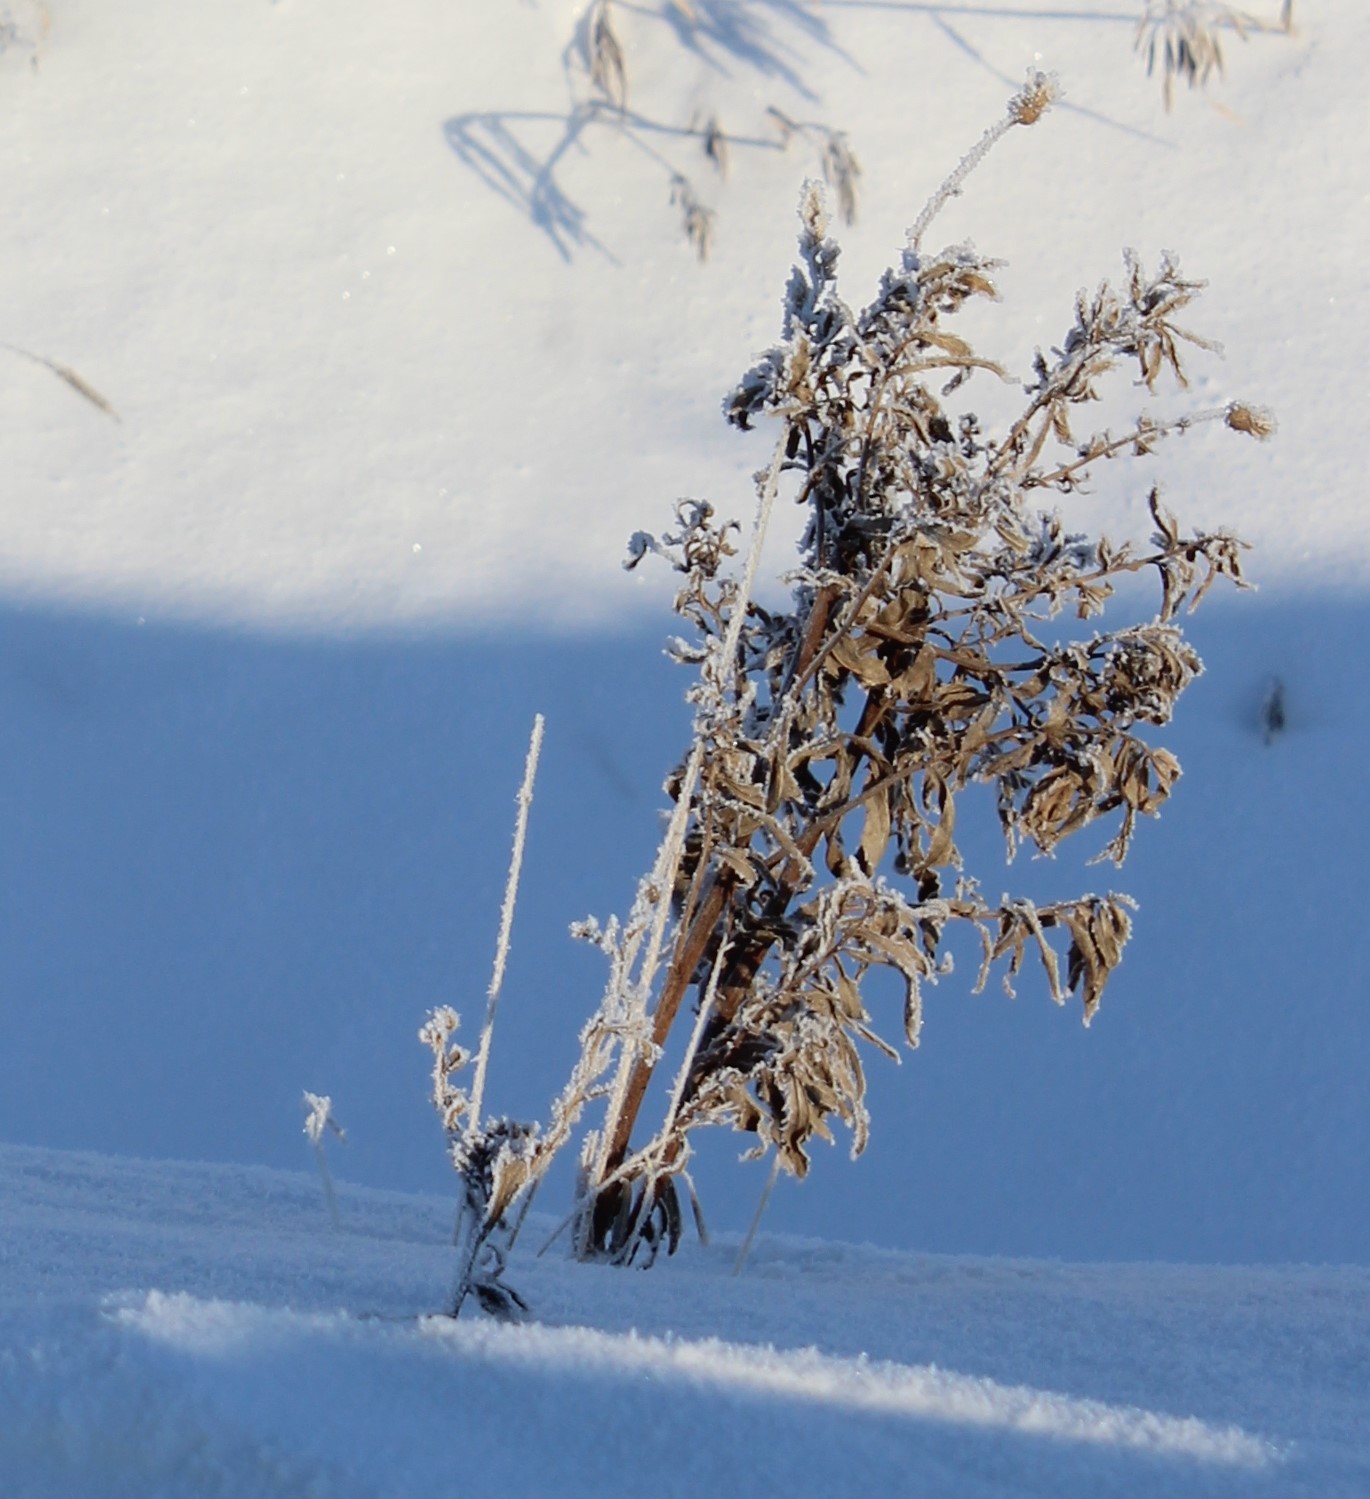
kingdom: Plantae
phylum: Tracheophyta
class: Magnoliopsida
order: Asterales
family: Asteraceae
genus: Cirsium
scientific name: Cirsium arvense
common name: Creeping thistle
